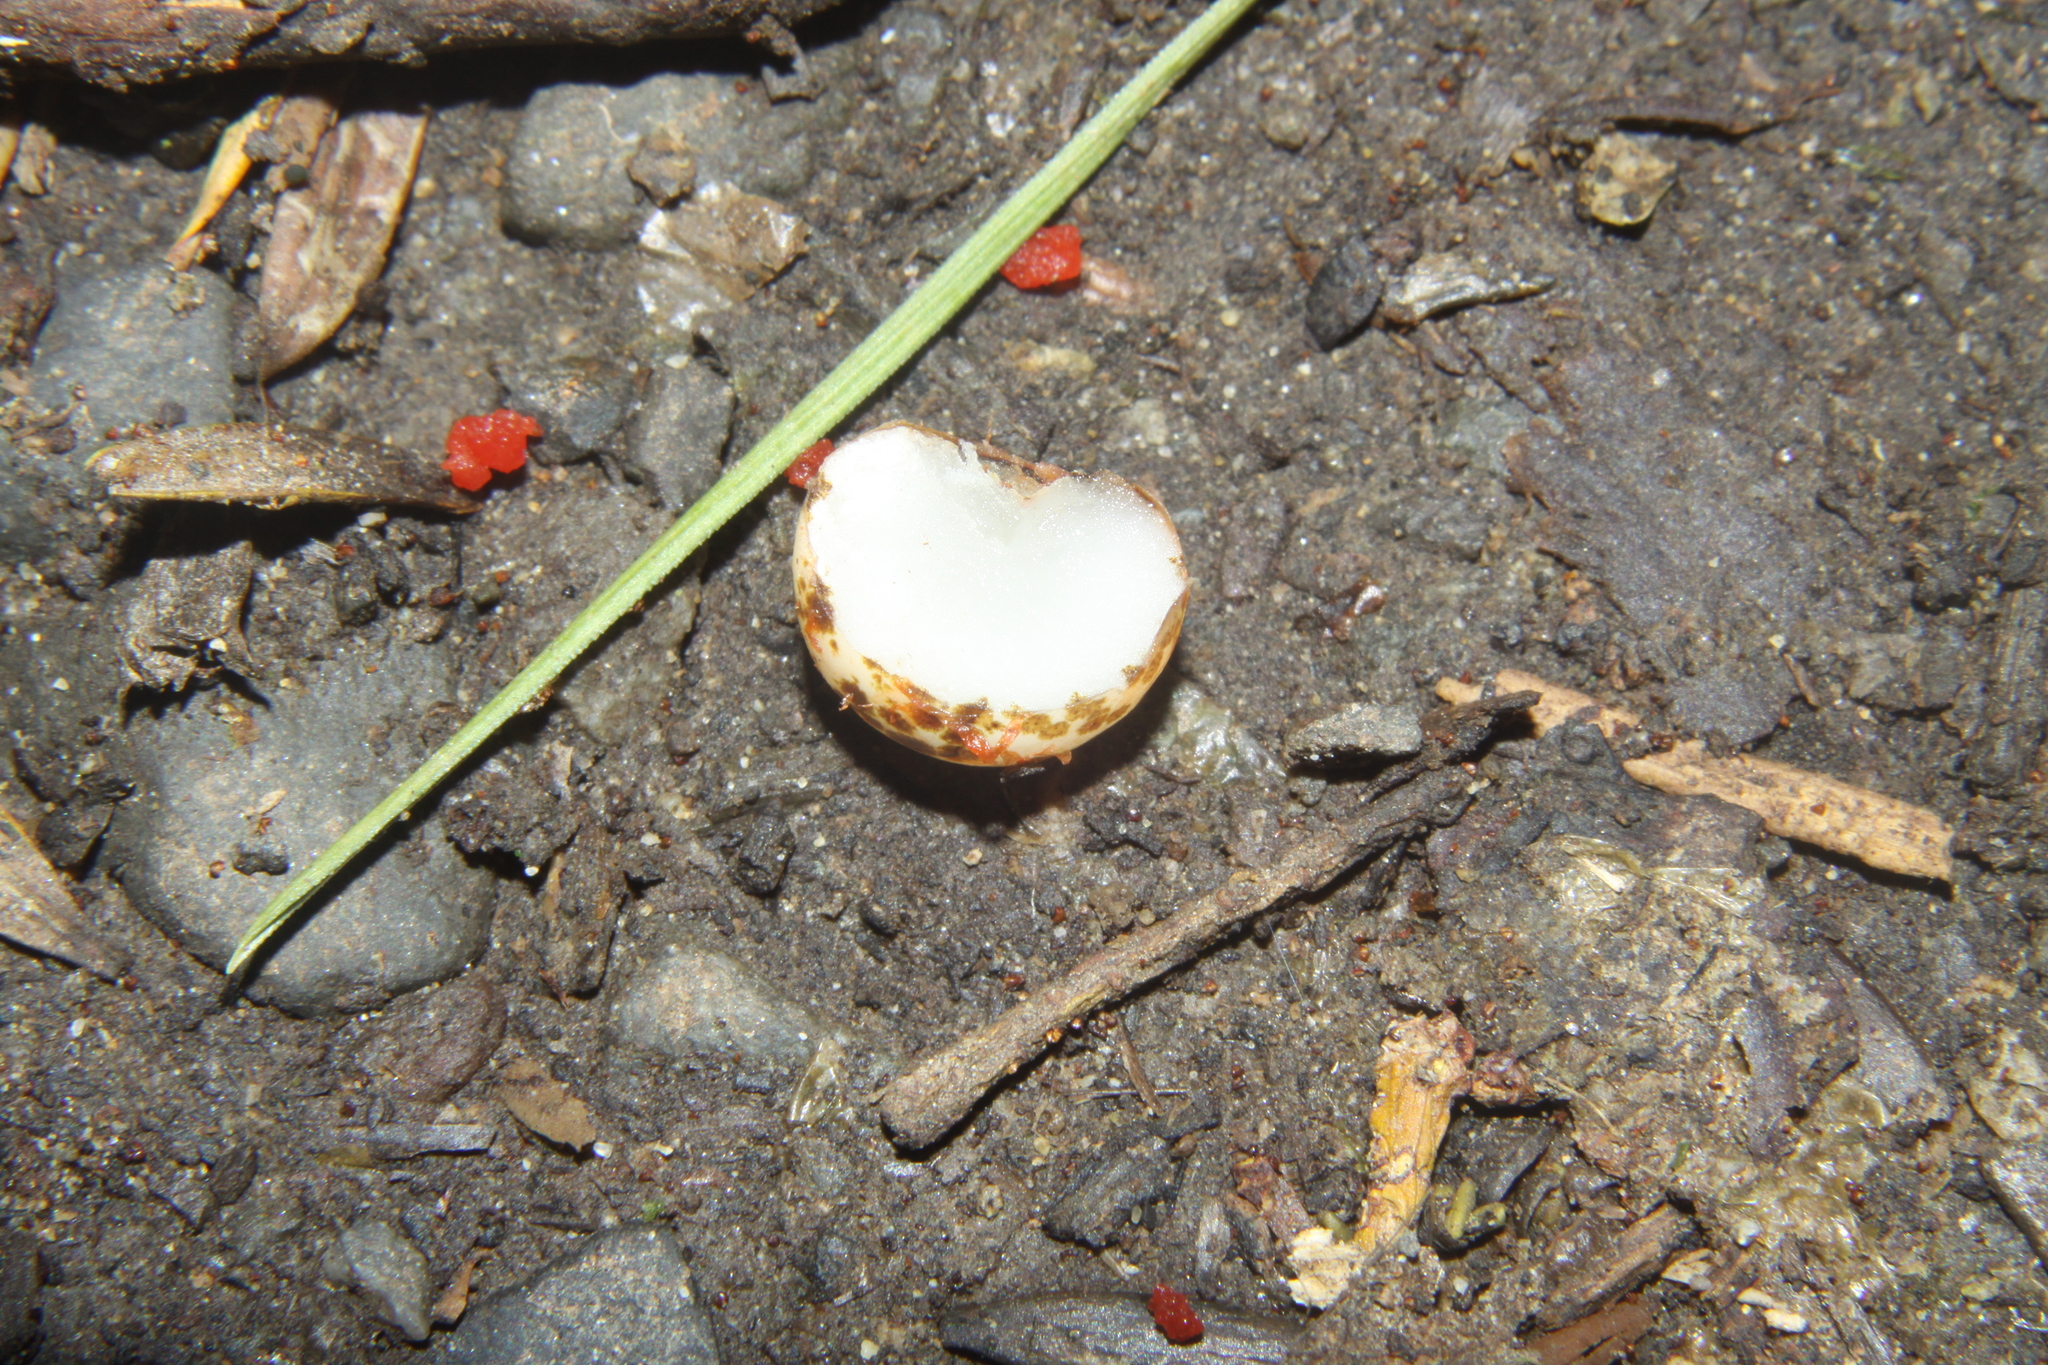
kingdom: Plantae
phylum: Tracheophyta
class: Liliopsida
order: Liliales
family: Ripogonaceae
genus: Ripogonum
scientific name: Ripogonum scandens
